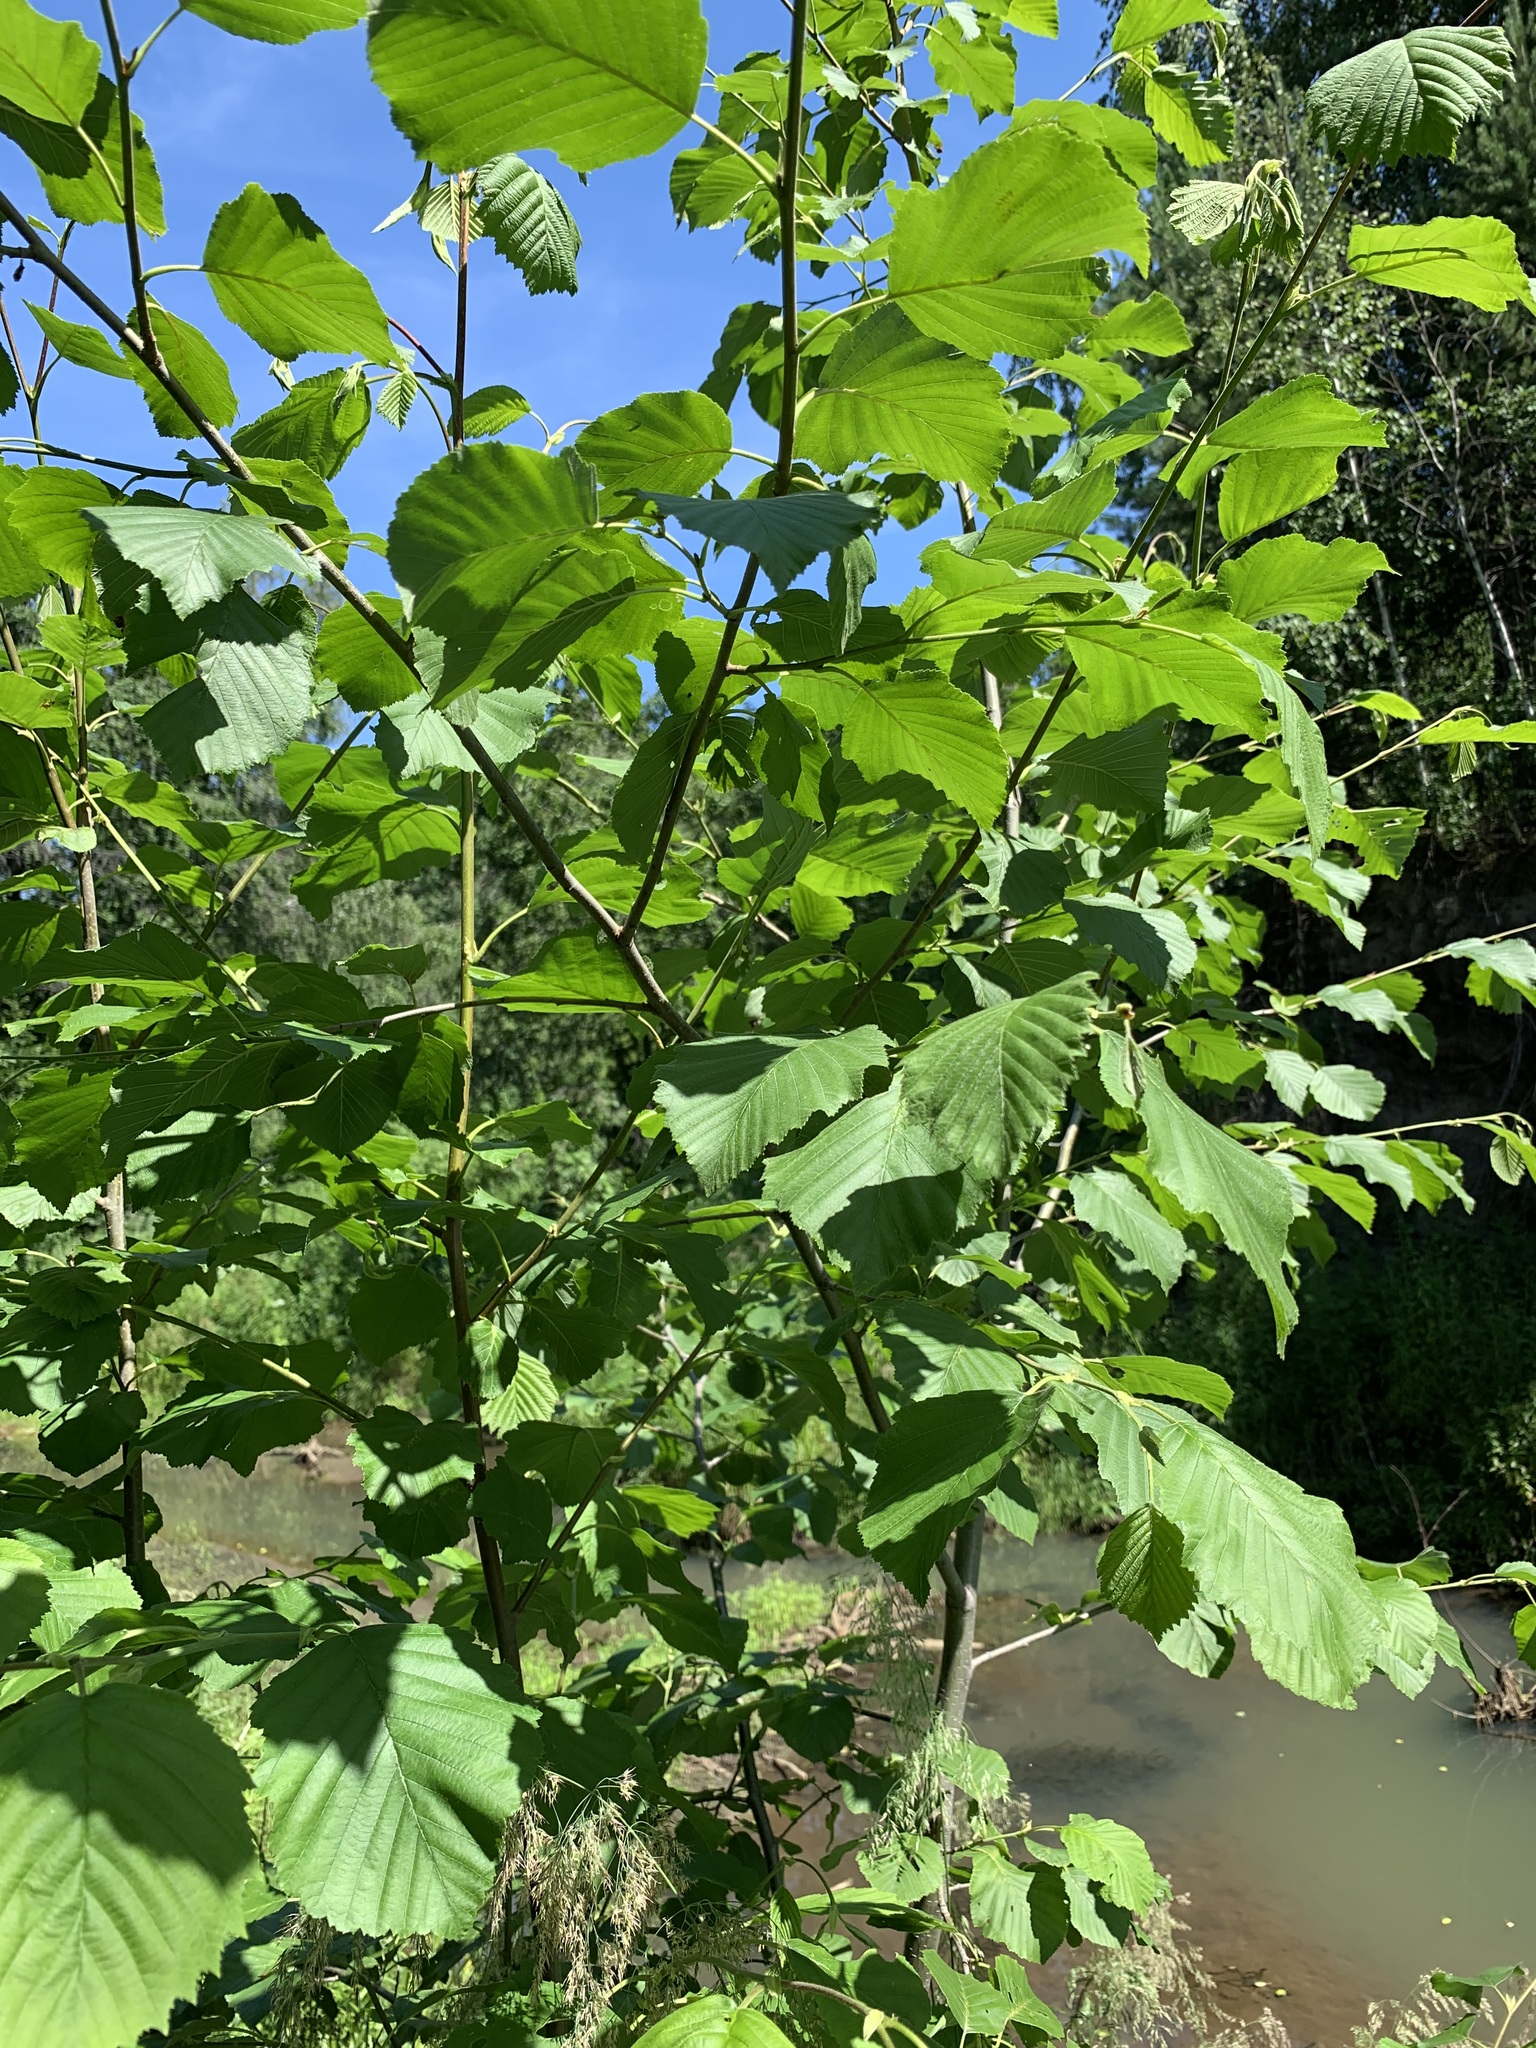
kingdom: Plantae
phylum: Tracheophyta
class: Magnoliopsida
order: Fagales
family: Betulaceae
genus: Alnus
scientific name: Alnus incana
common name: Grey alder
